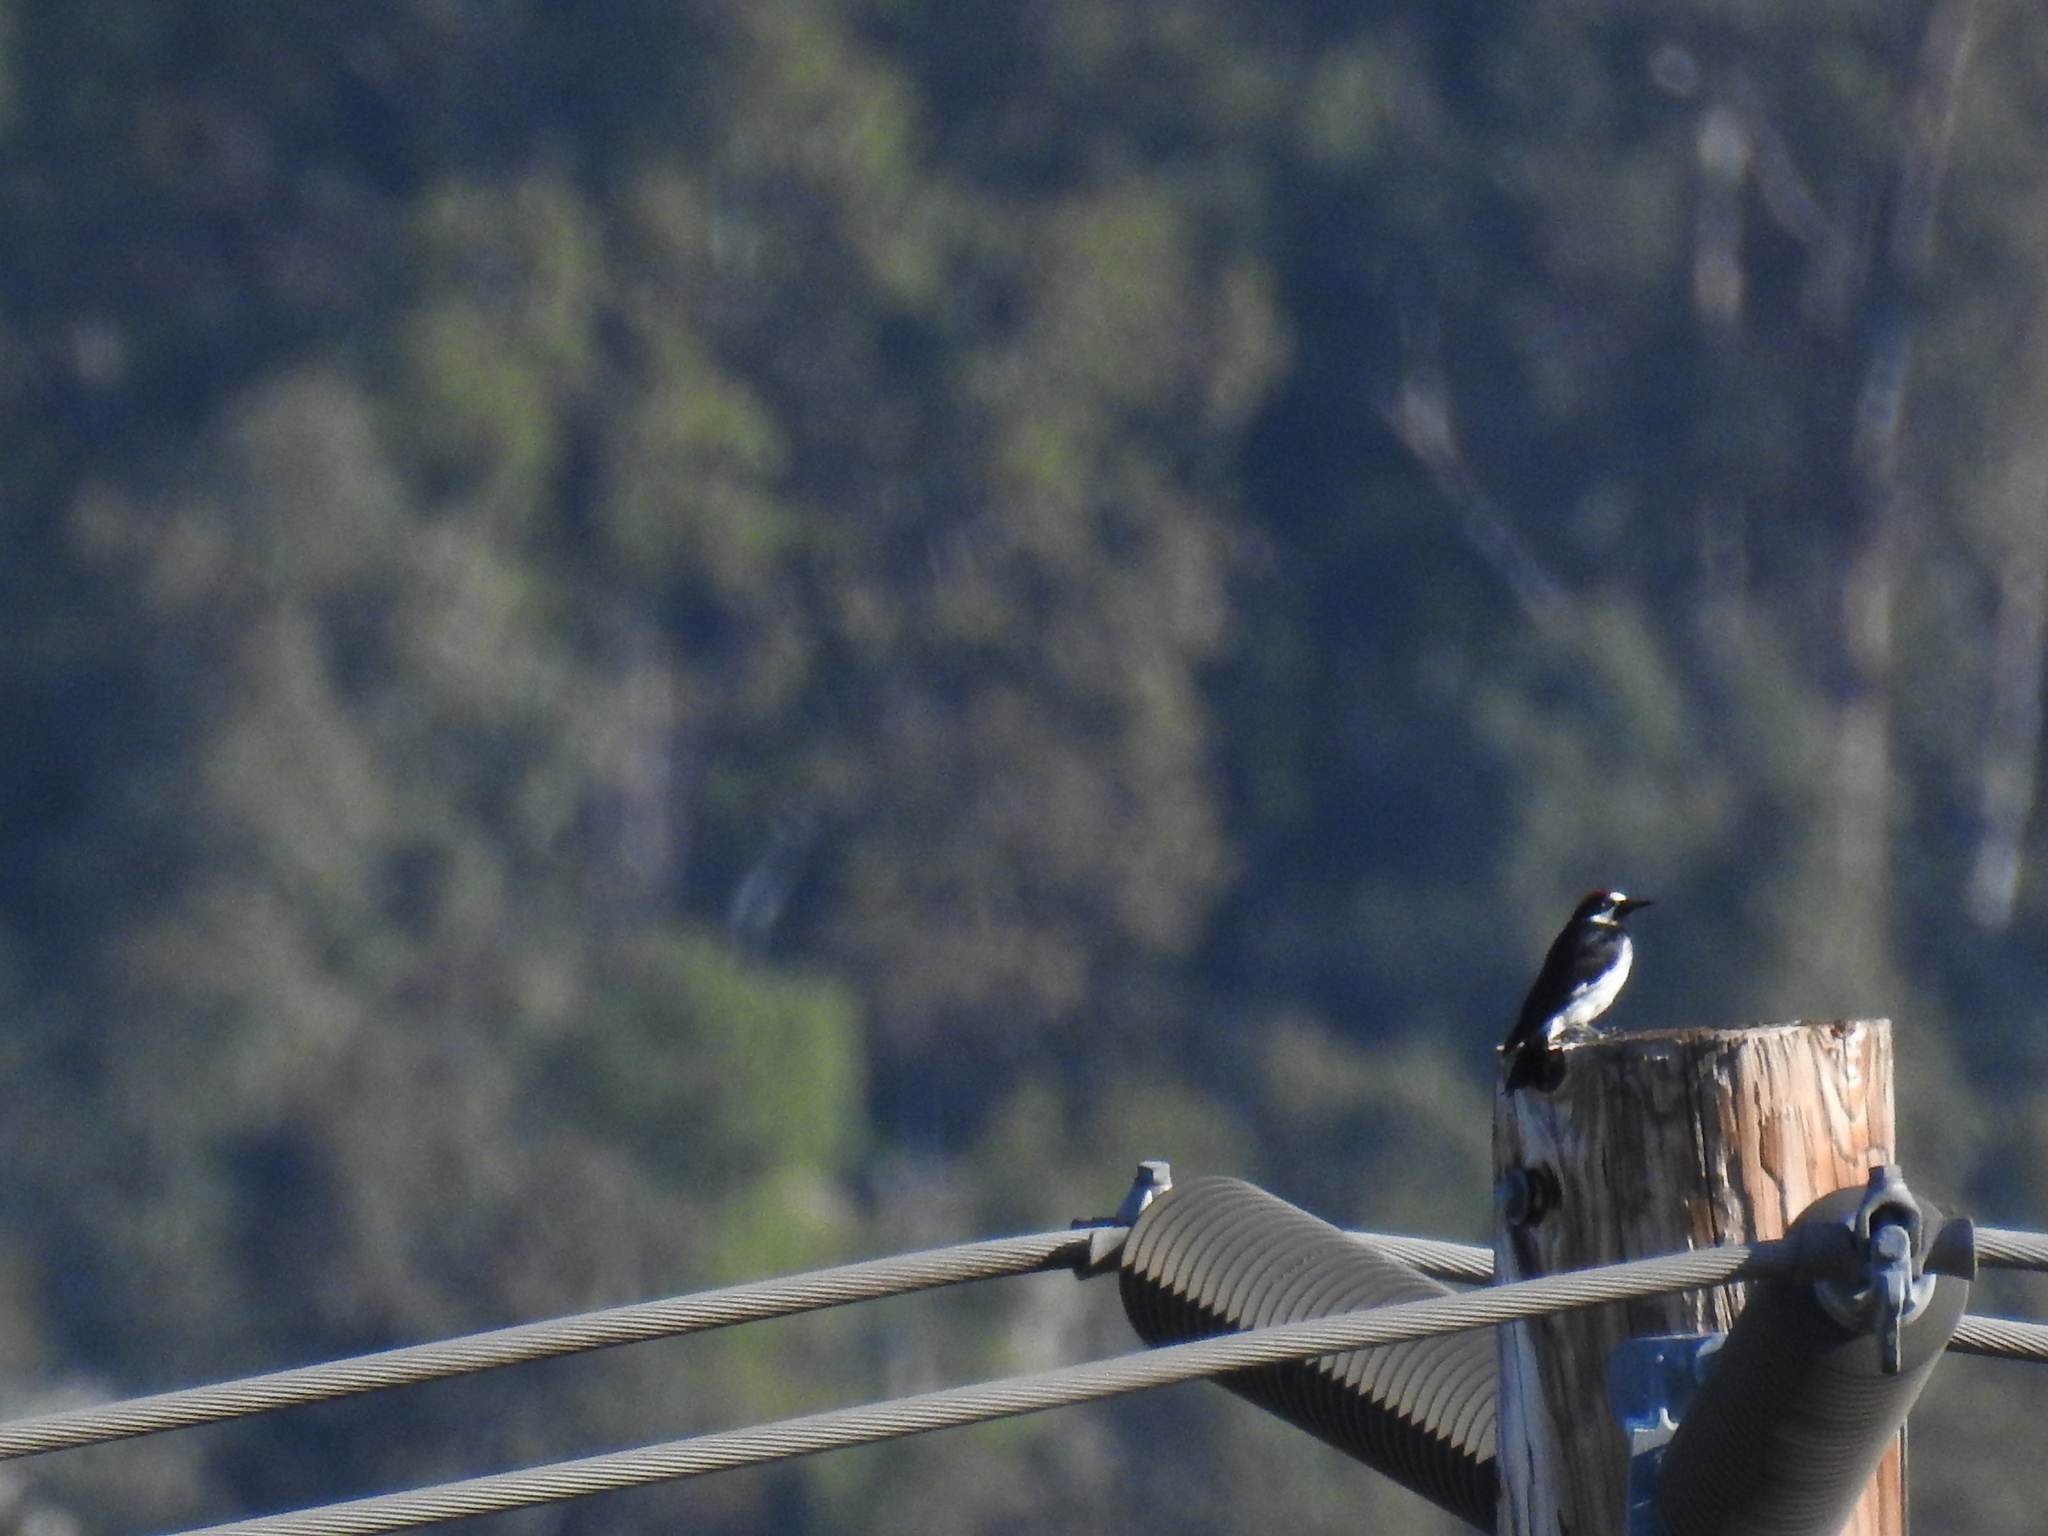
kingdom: Animalia
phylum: Chordata
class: Aves
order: Piciformes
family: Picidae
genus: Melanerpes
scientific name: Melanerpes formicivorus
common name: Acorn woodpecker
